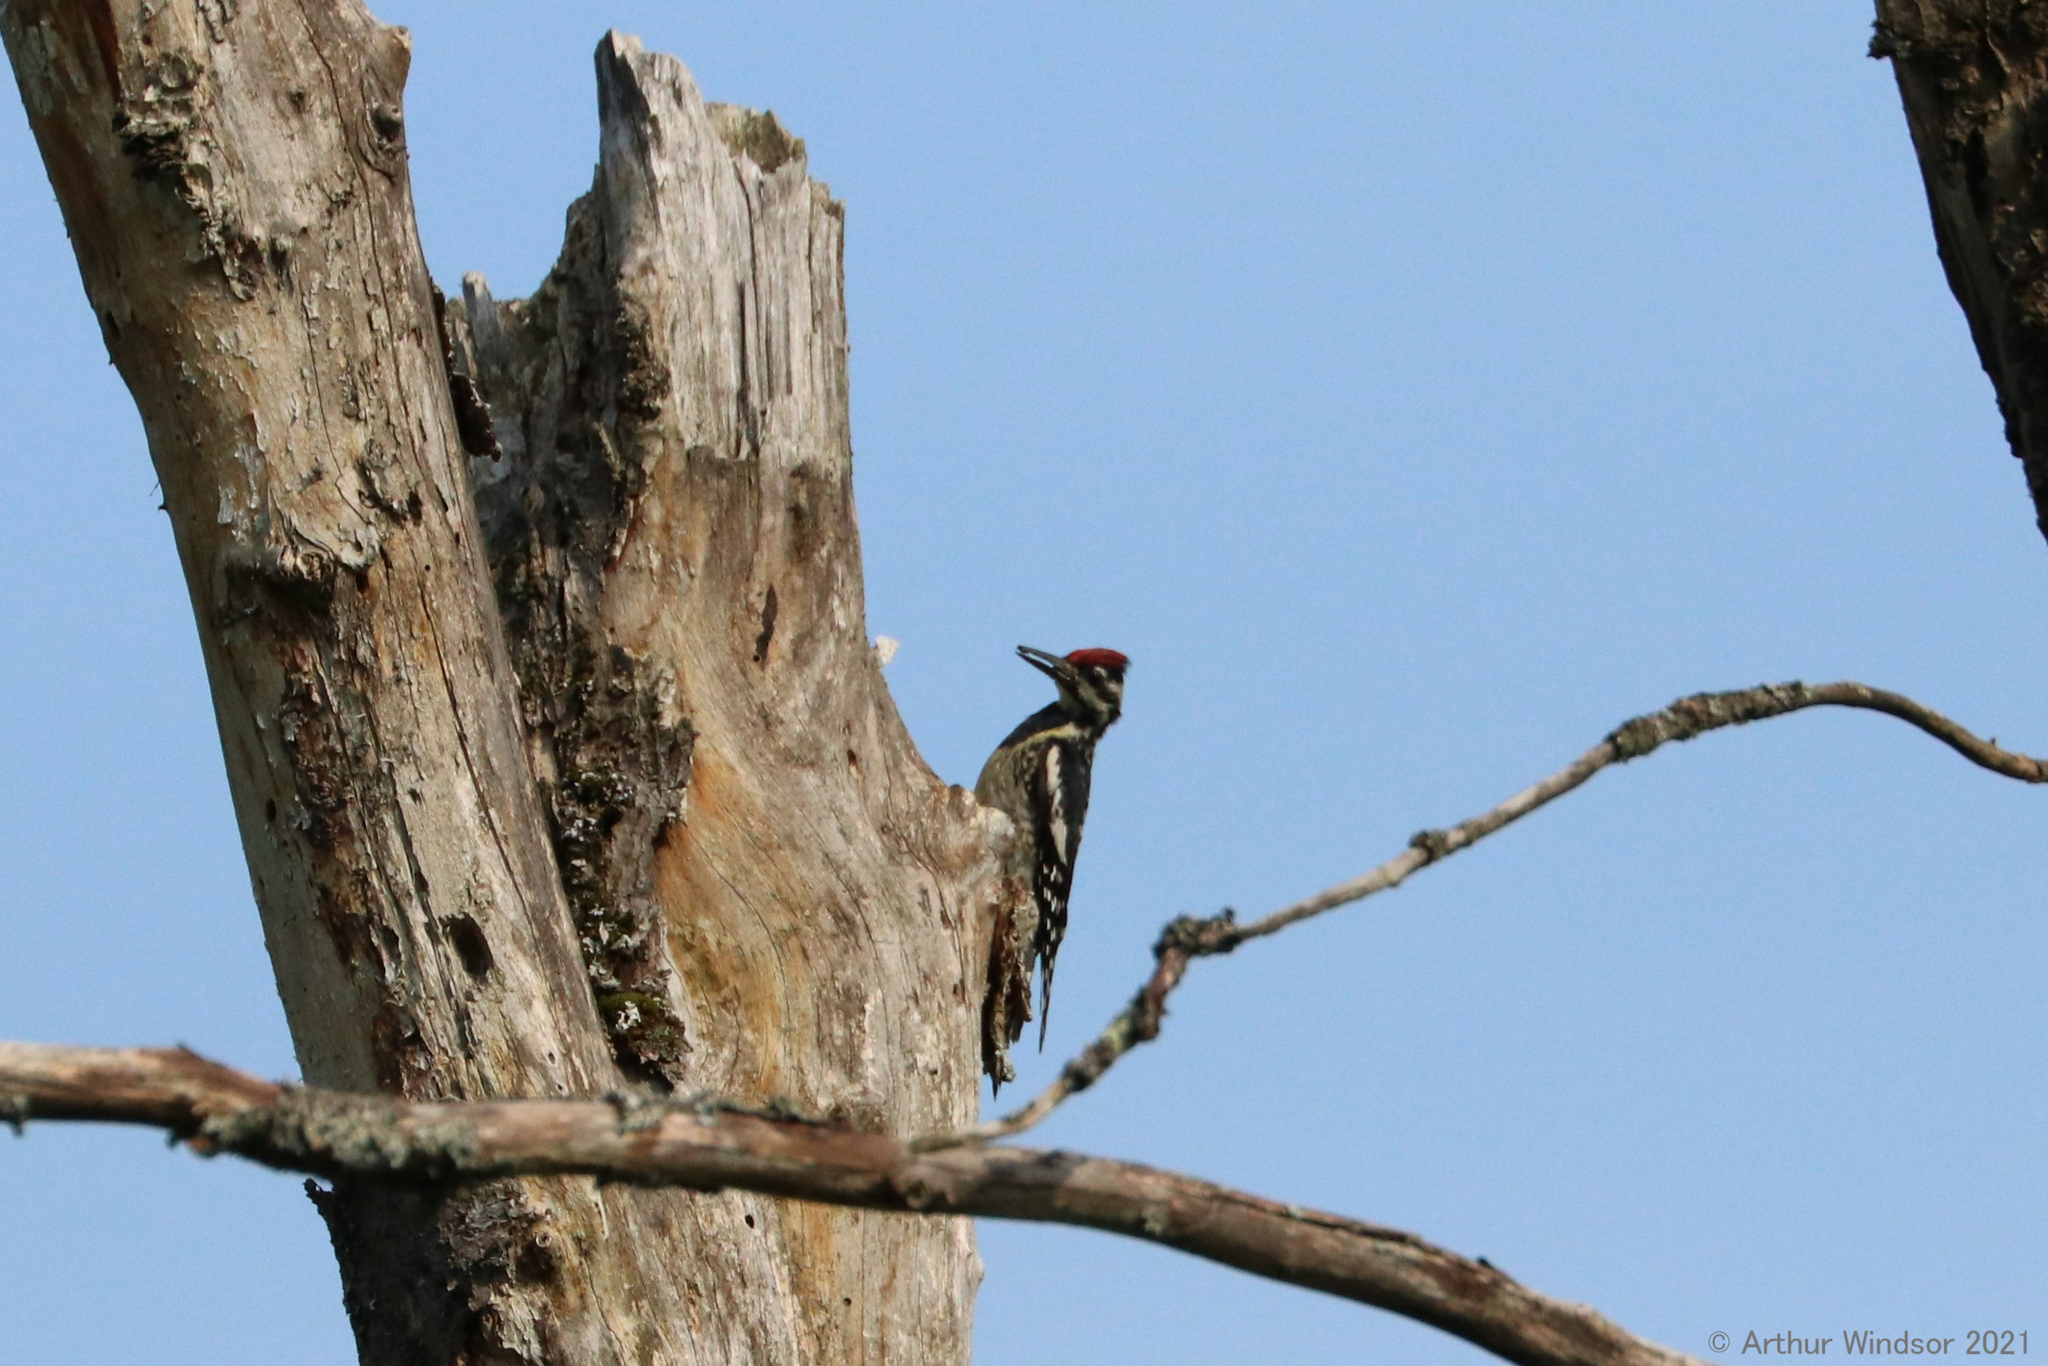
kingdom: Animalia
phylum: Chordata
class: Aves
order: Piciformes
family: Picidae
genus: Sphyrapicus
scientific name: Sphyrapicus varius
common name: Yellow-bellied sapsucker
